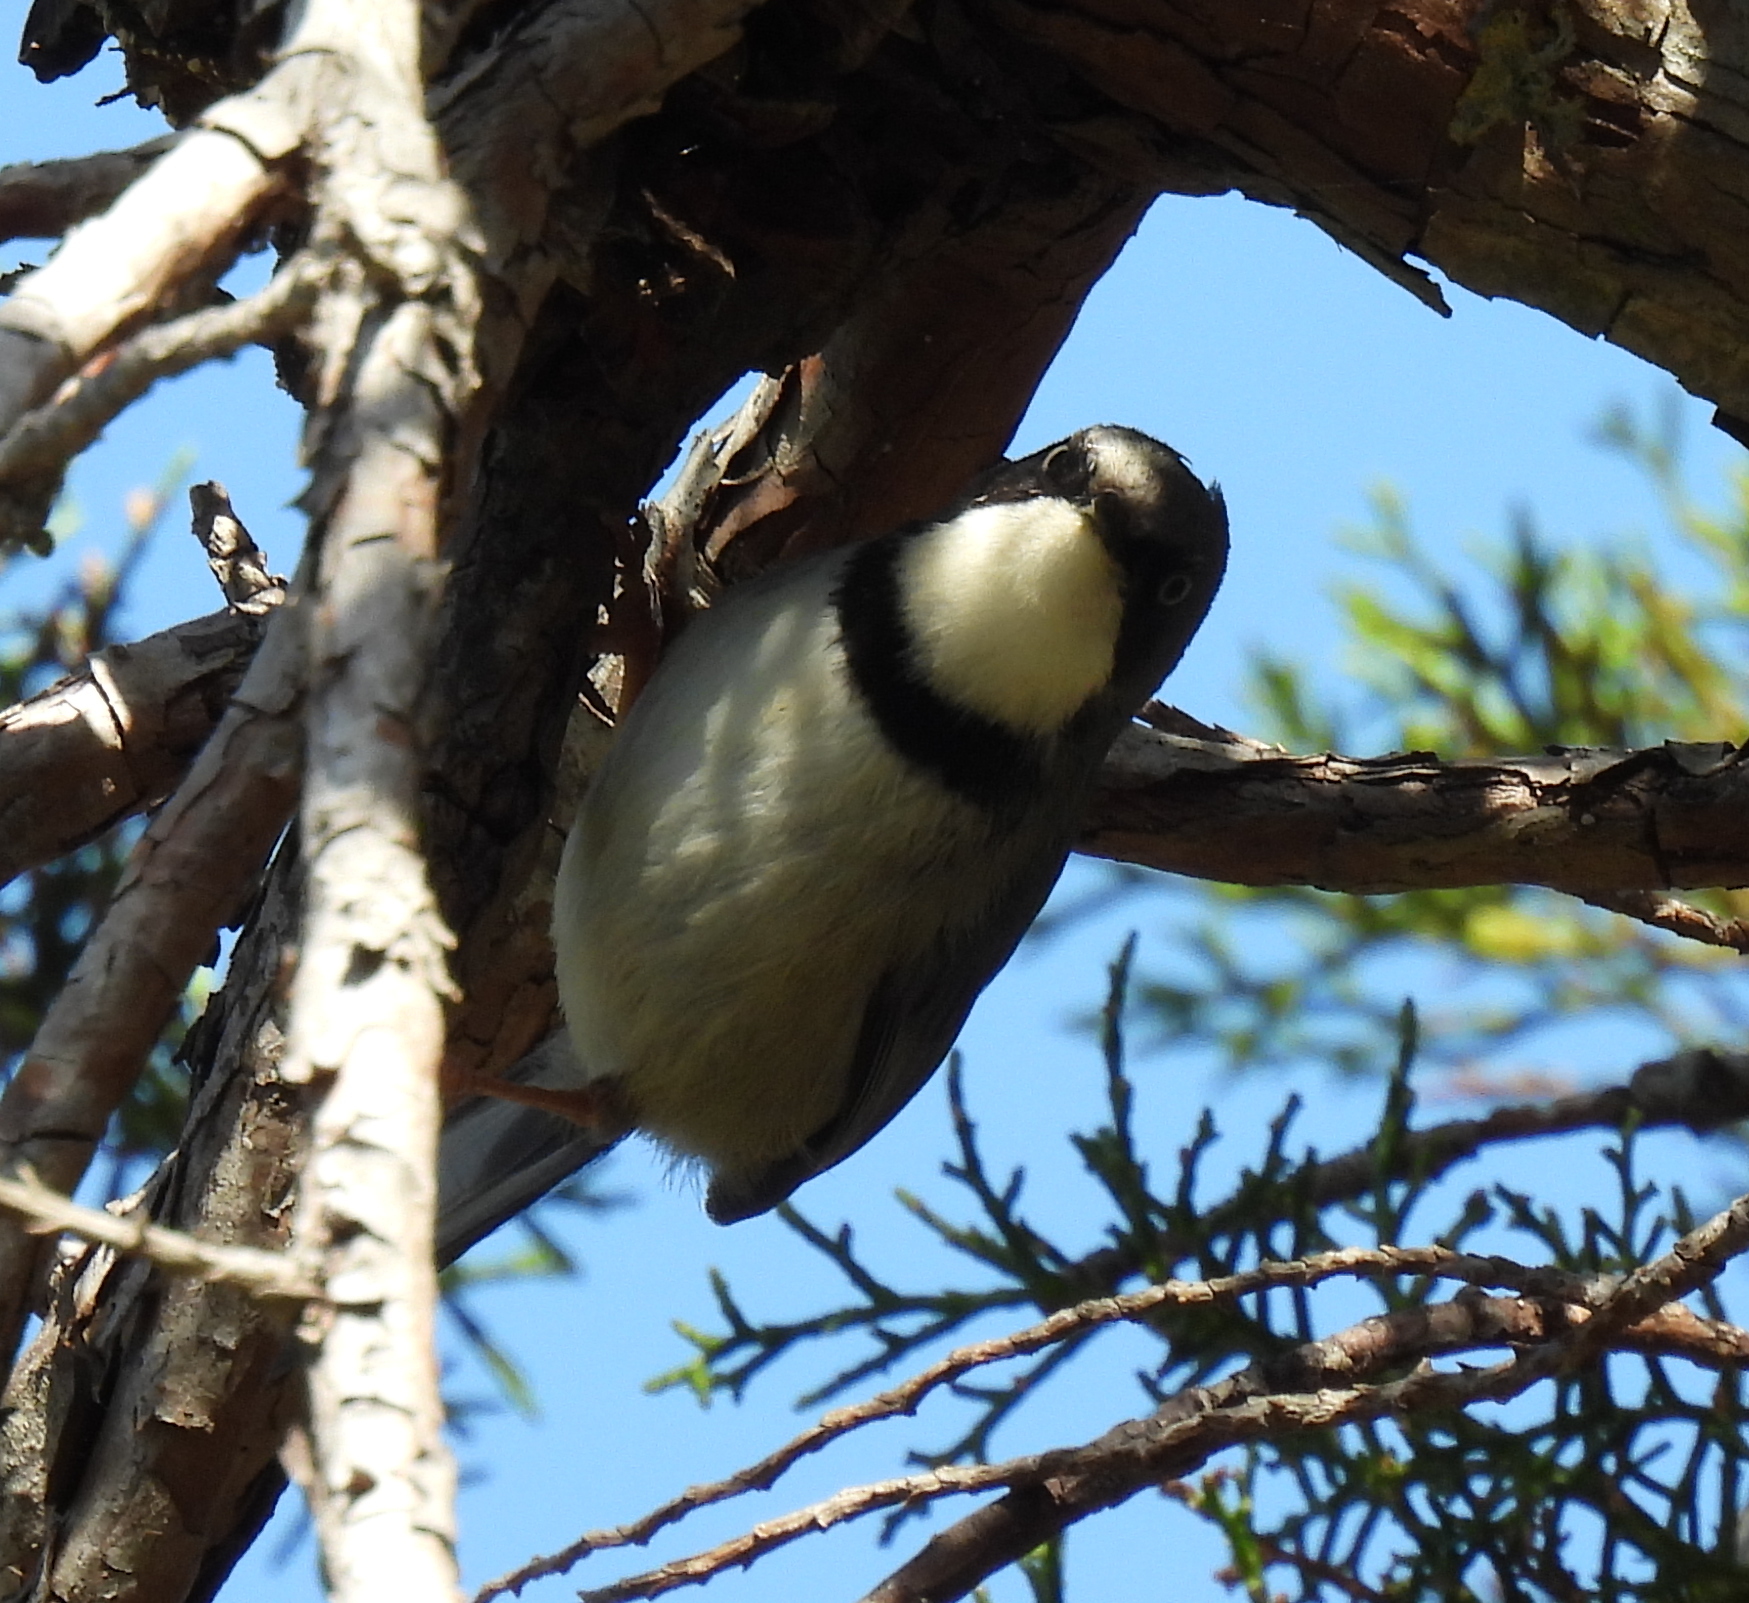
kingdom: Animalia
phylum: Chordata
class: Aves
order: Passeriformes
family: Cisticolidae
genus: Apalis
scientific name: Apalis thoracica
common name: Bar-throated apalis
